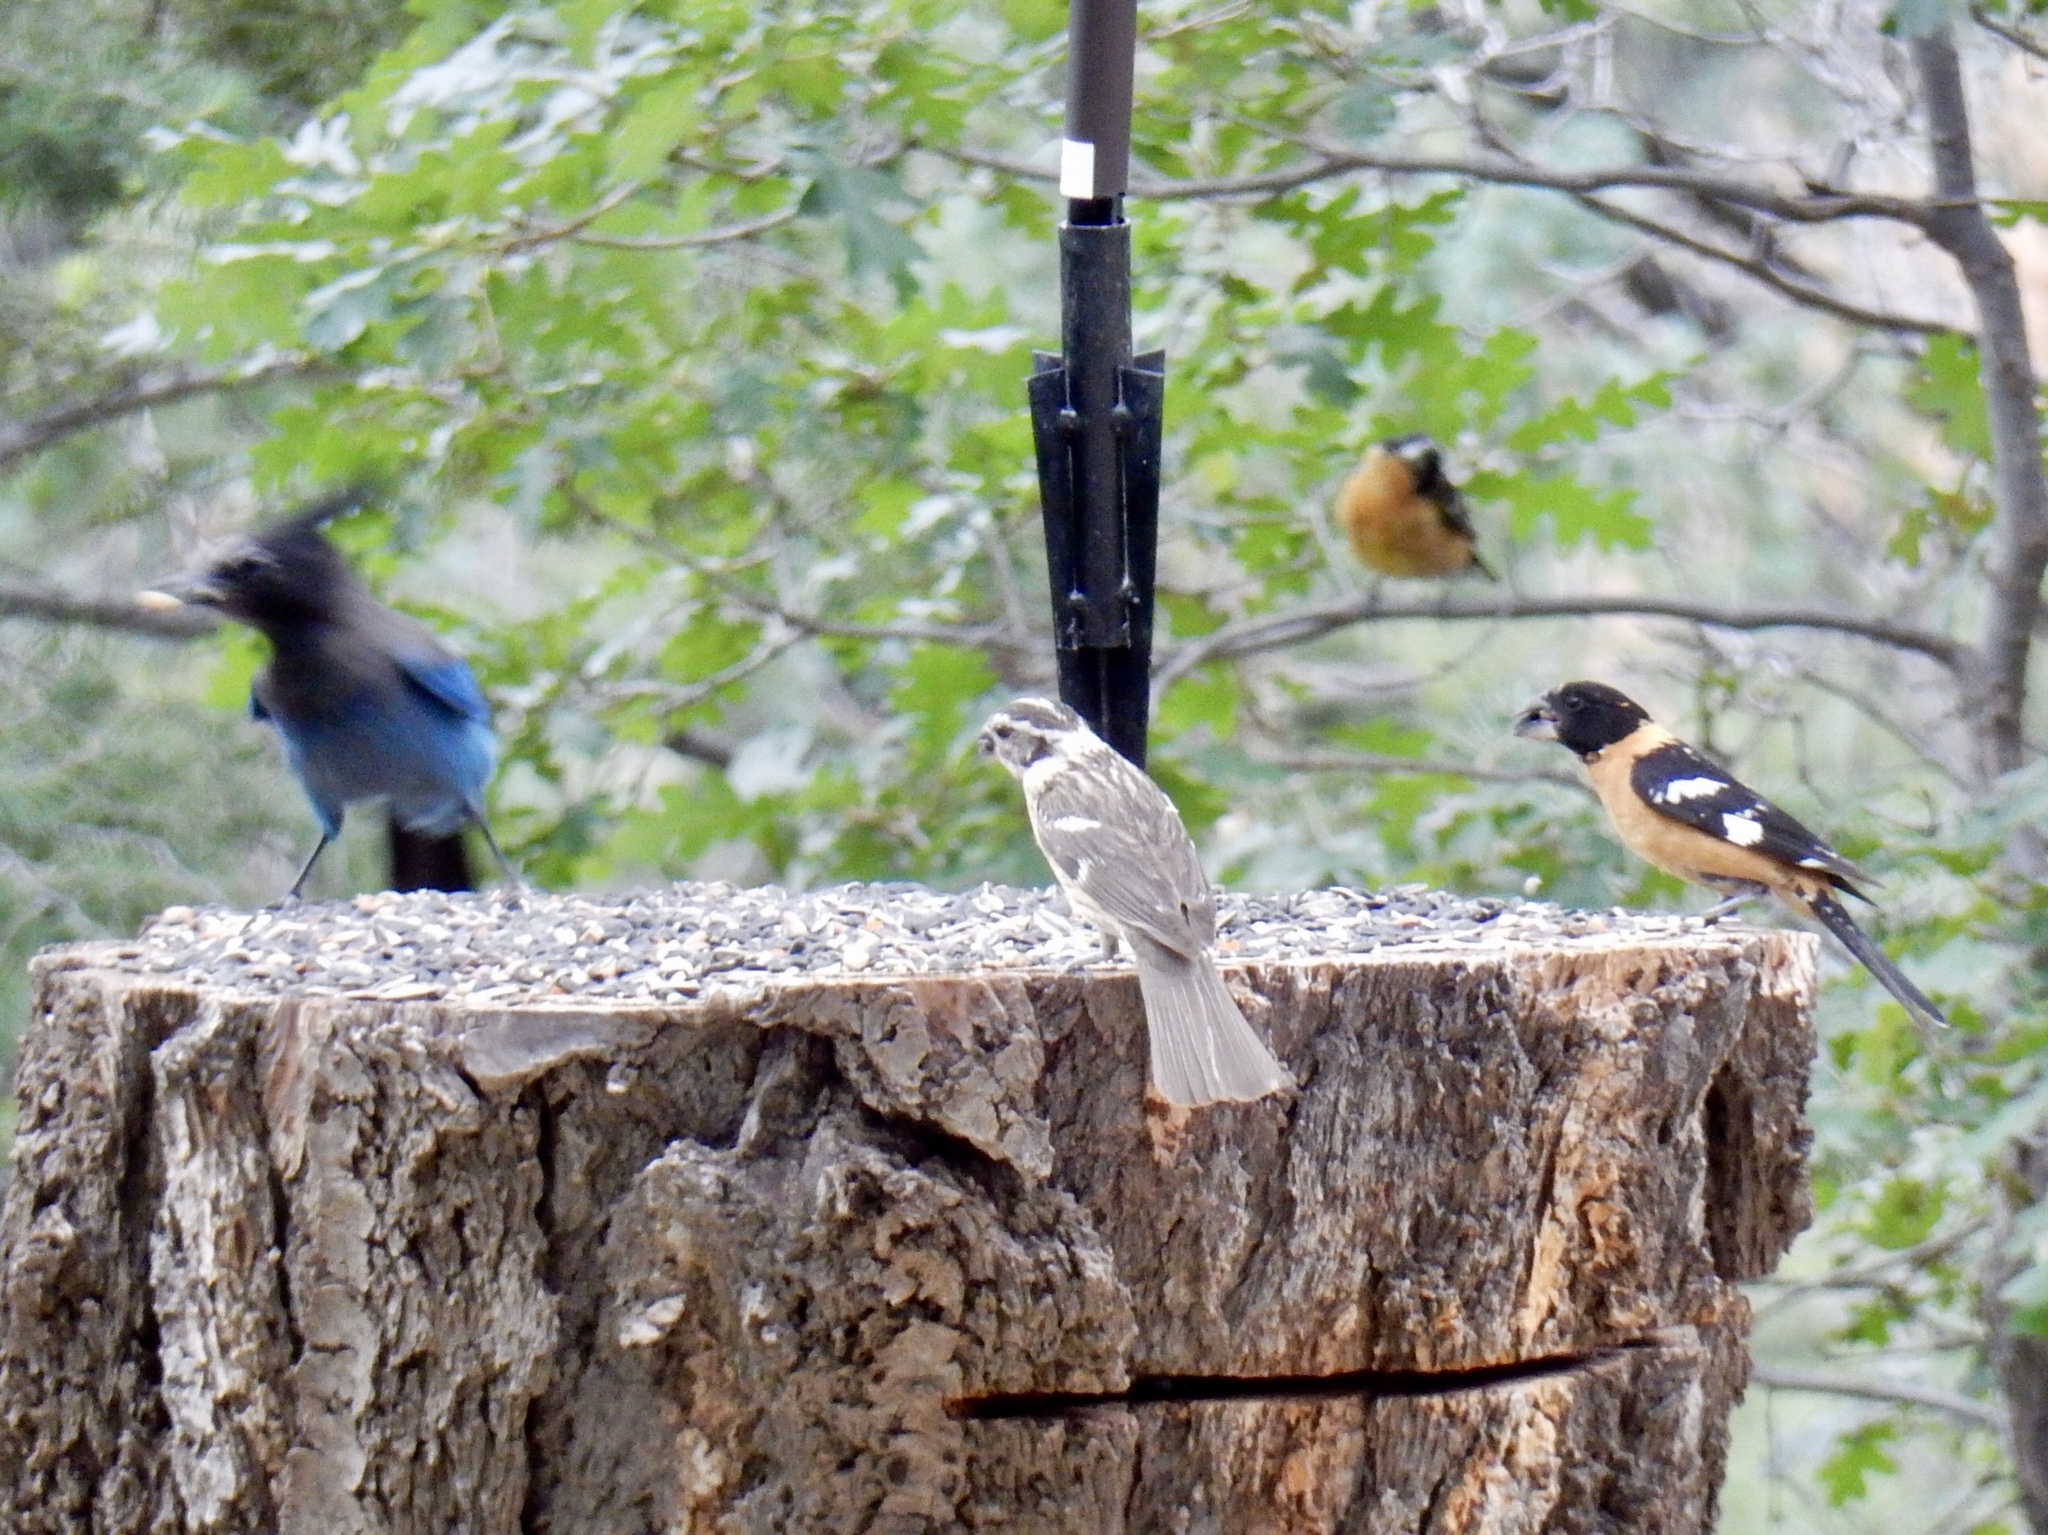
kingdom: Animalia
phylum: Chordata
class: Aves
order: Passeriformes
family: Cardinalidae
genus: Pheucticus
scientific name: Pheucticus melanocephalus
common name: Black-headed grosbeak
